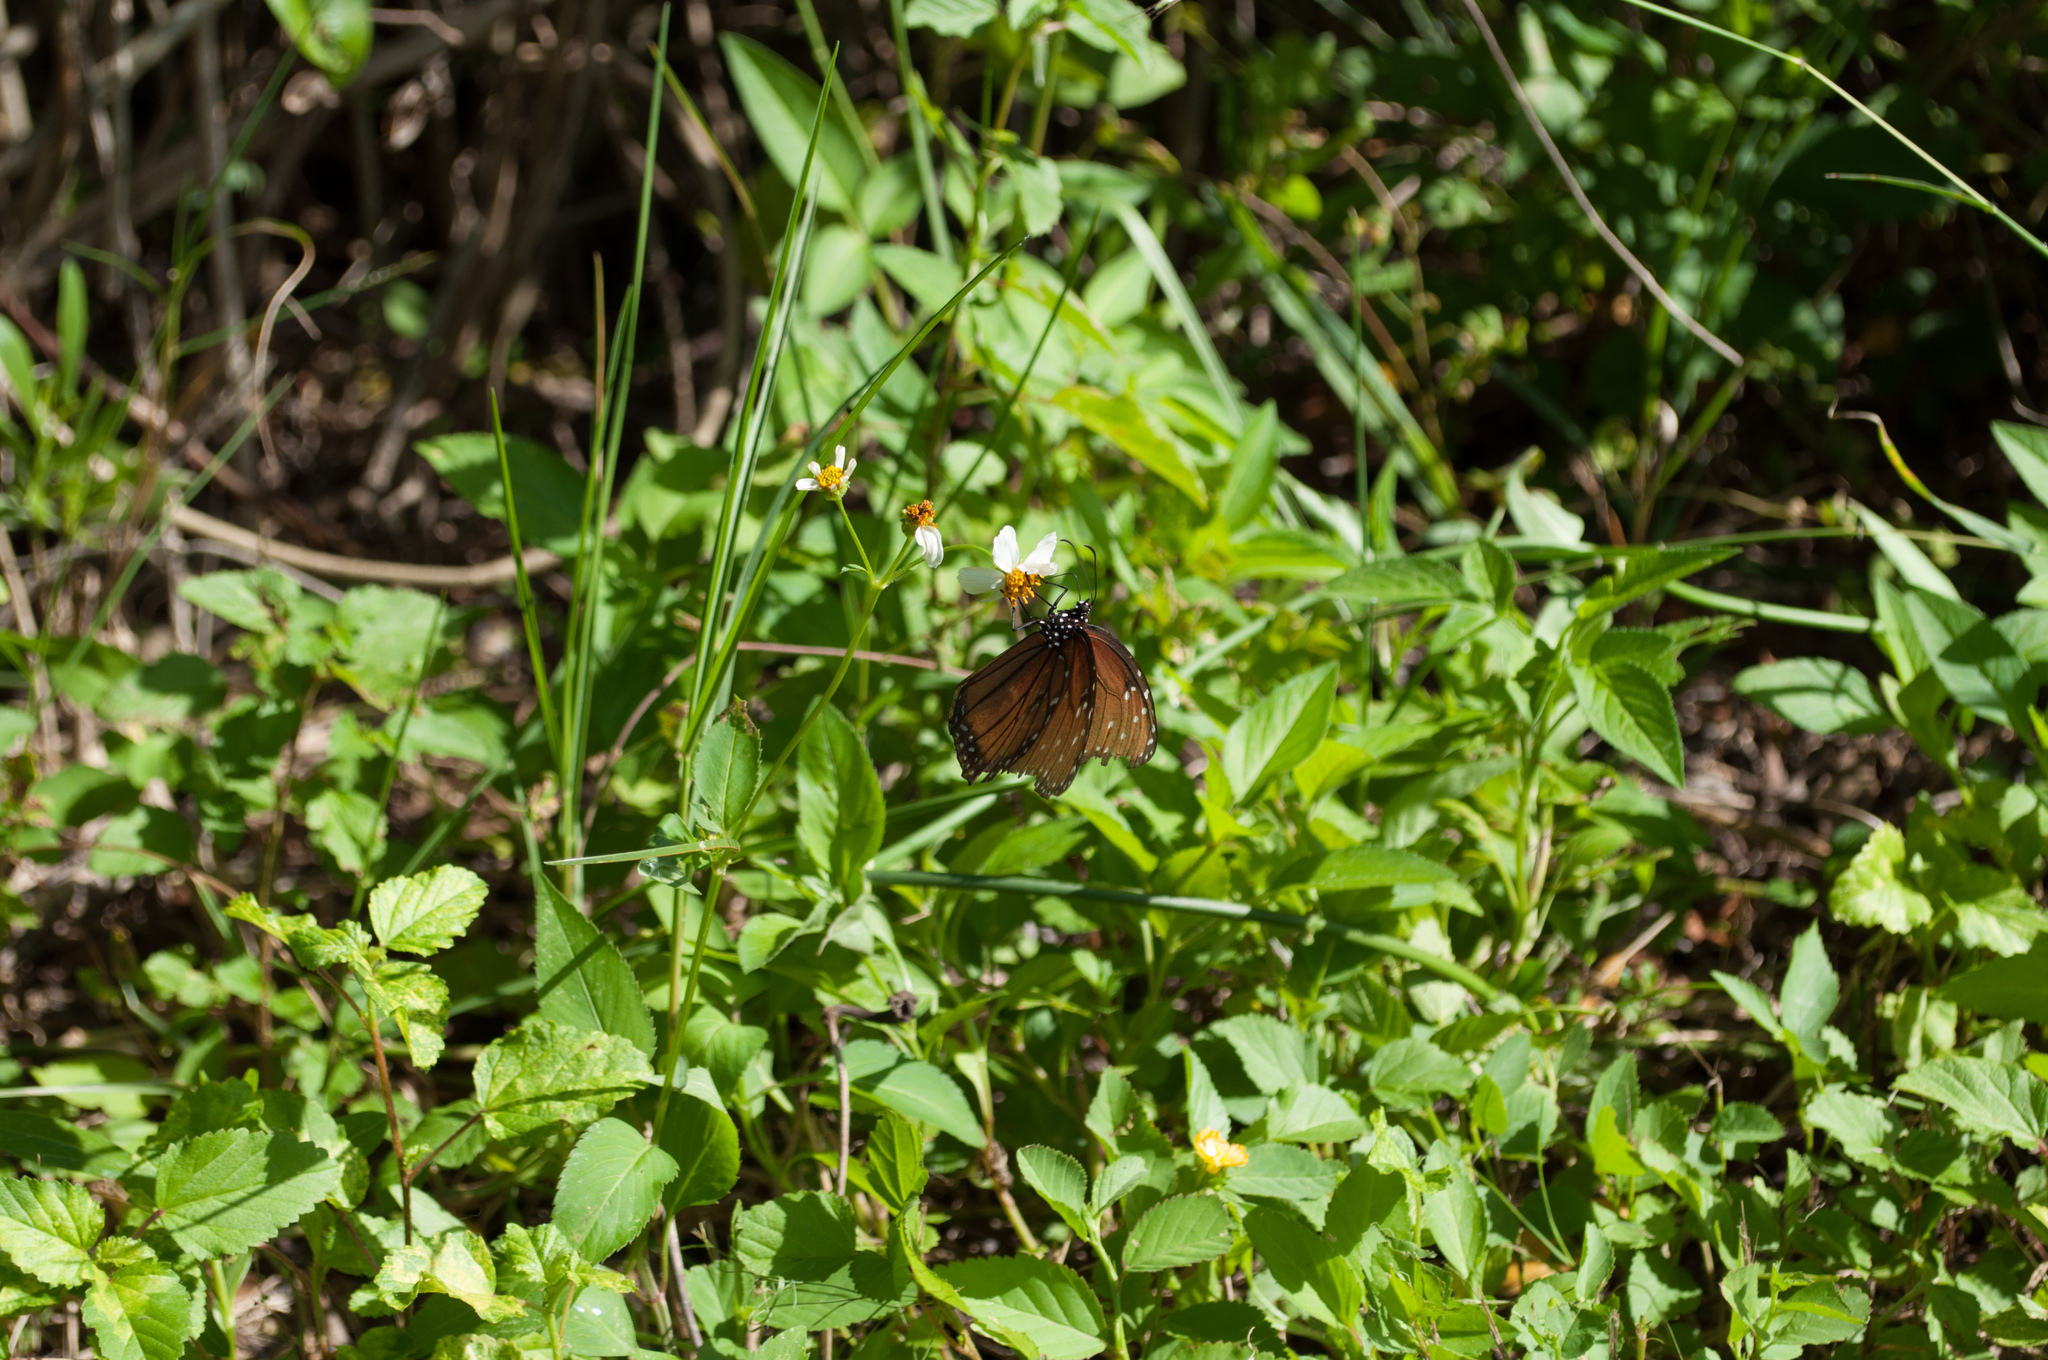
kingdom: Animalia
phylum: Arthropoda
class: Insecta
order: Lepidoptera
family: Nymphalidae
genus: Danaus
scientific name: Danaus gilippus
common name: Queen
